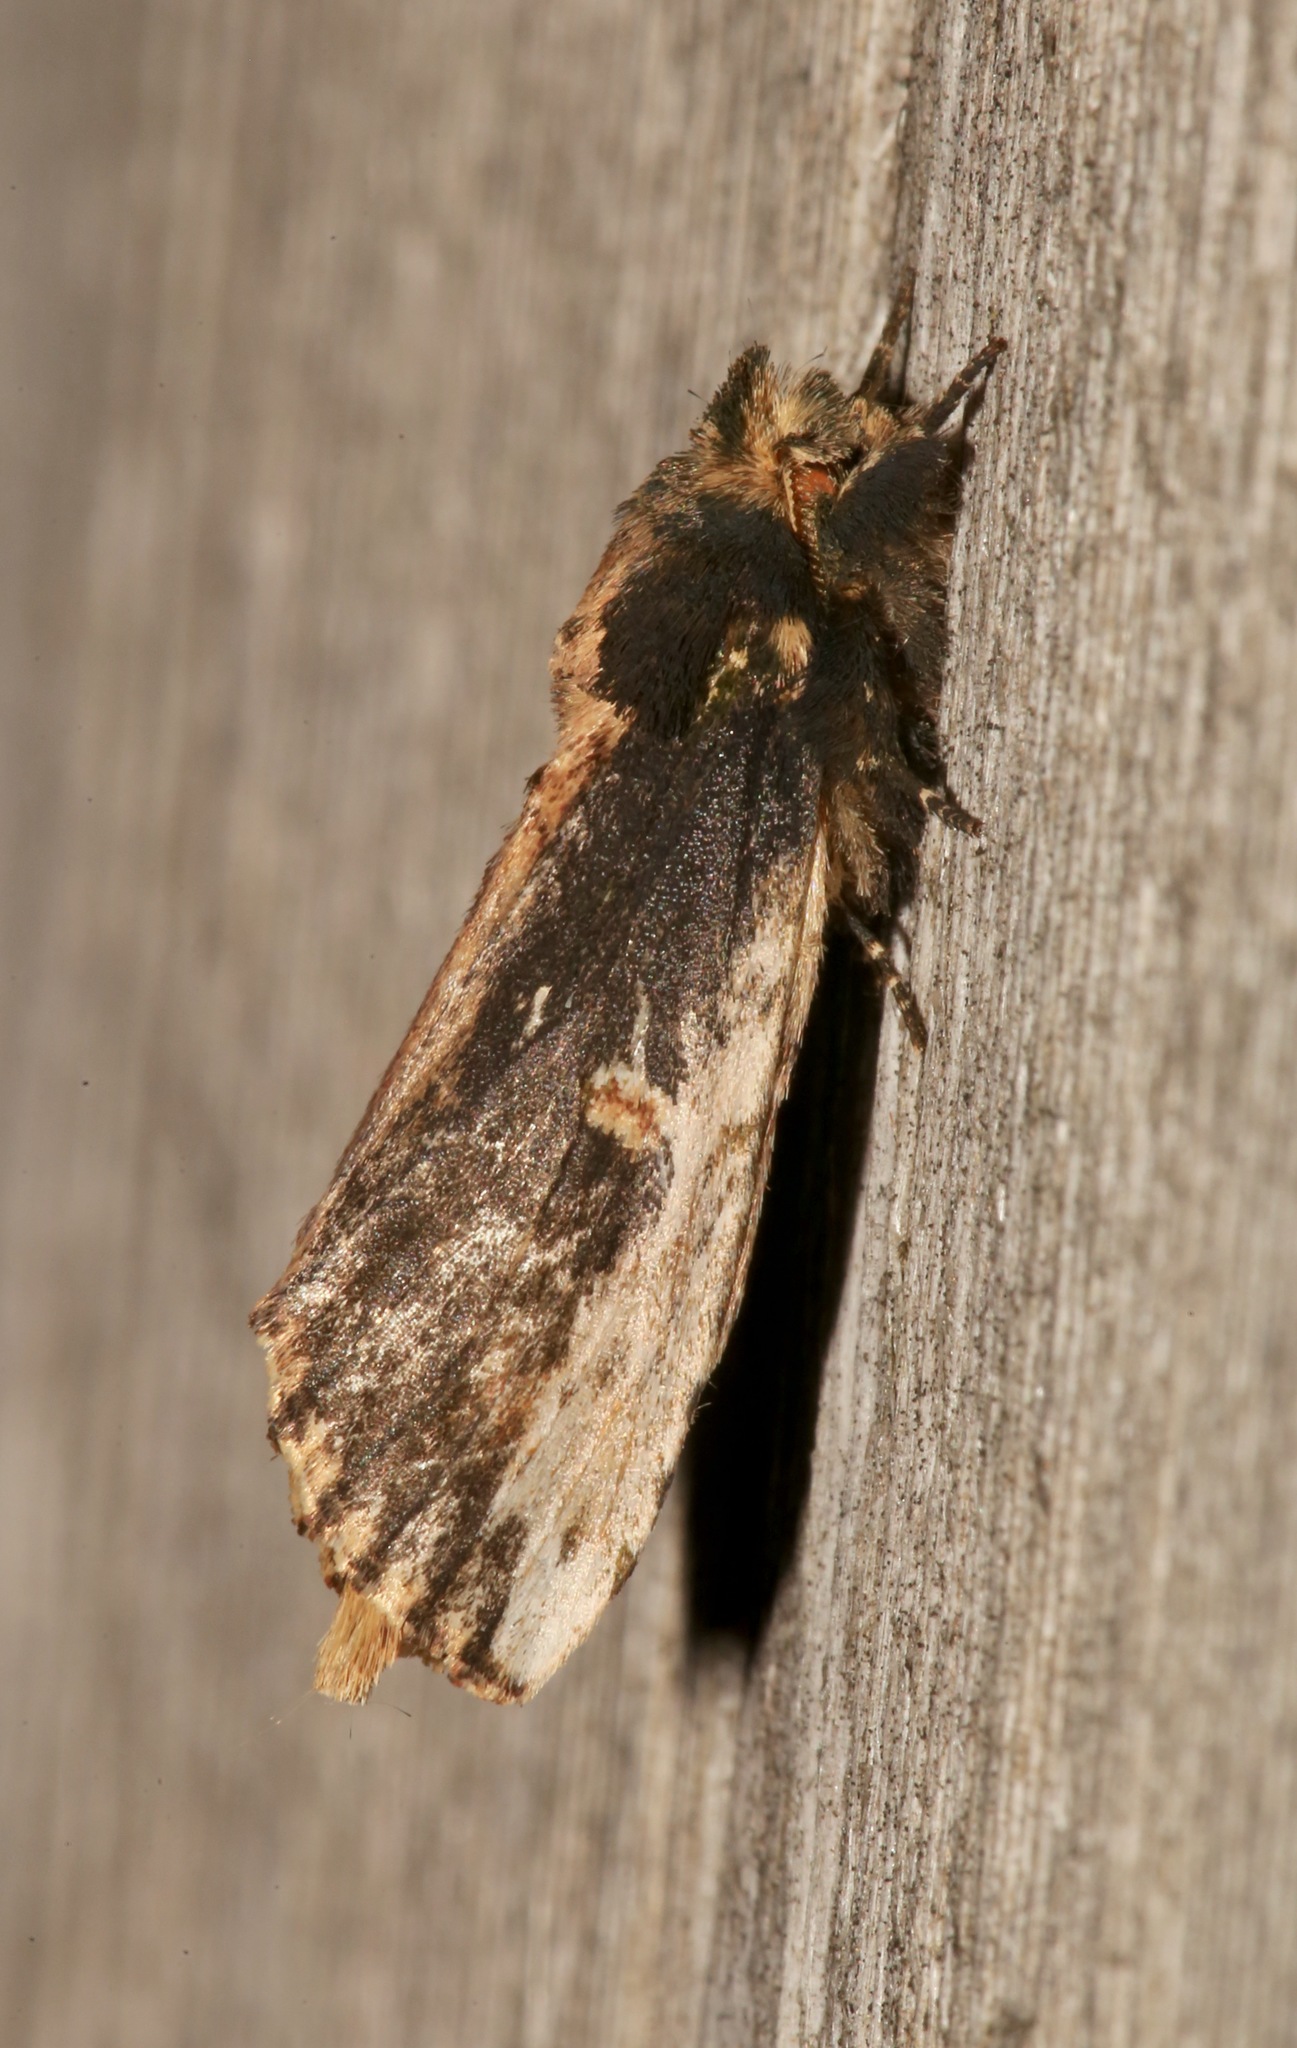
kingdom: Animalia
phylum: Arthropoda
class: Insecta
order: Lepidoptera
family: Notodontidae
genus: Schizura
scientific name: Schizura ipomaeae
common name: Morning-glory prominent
